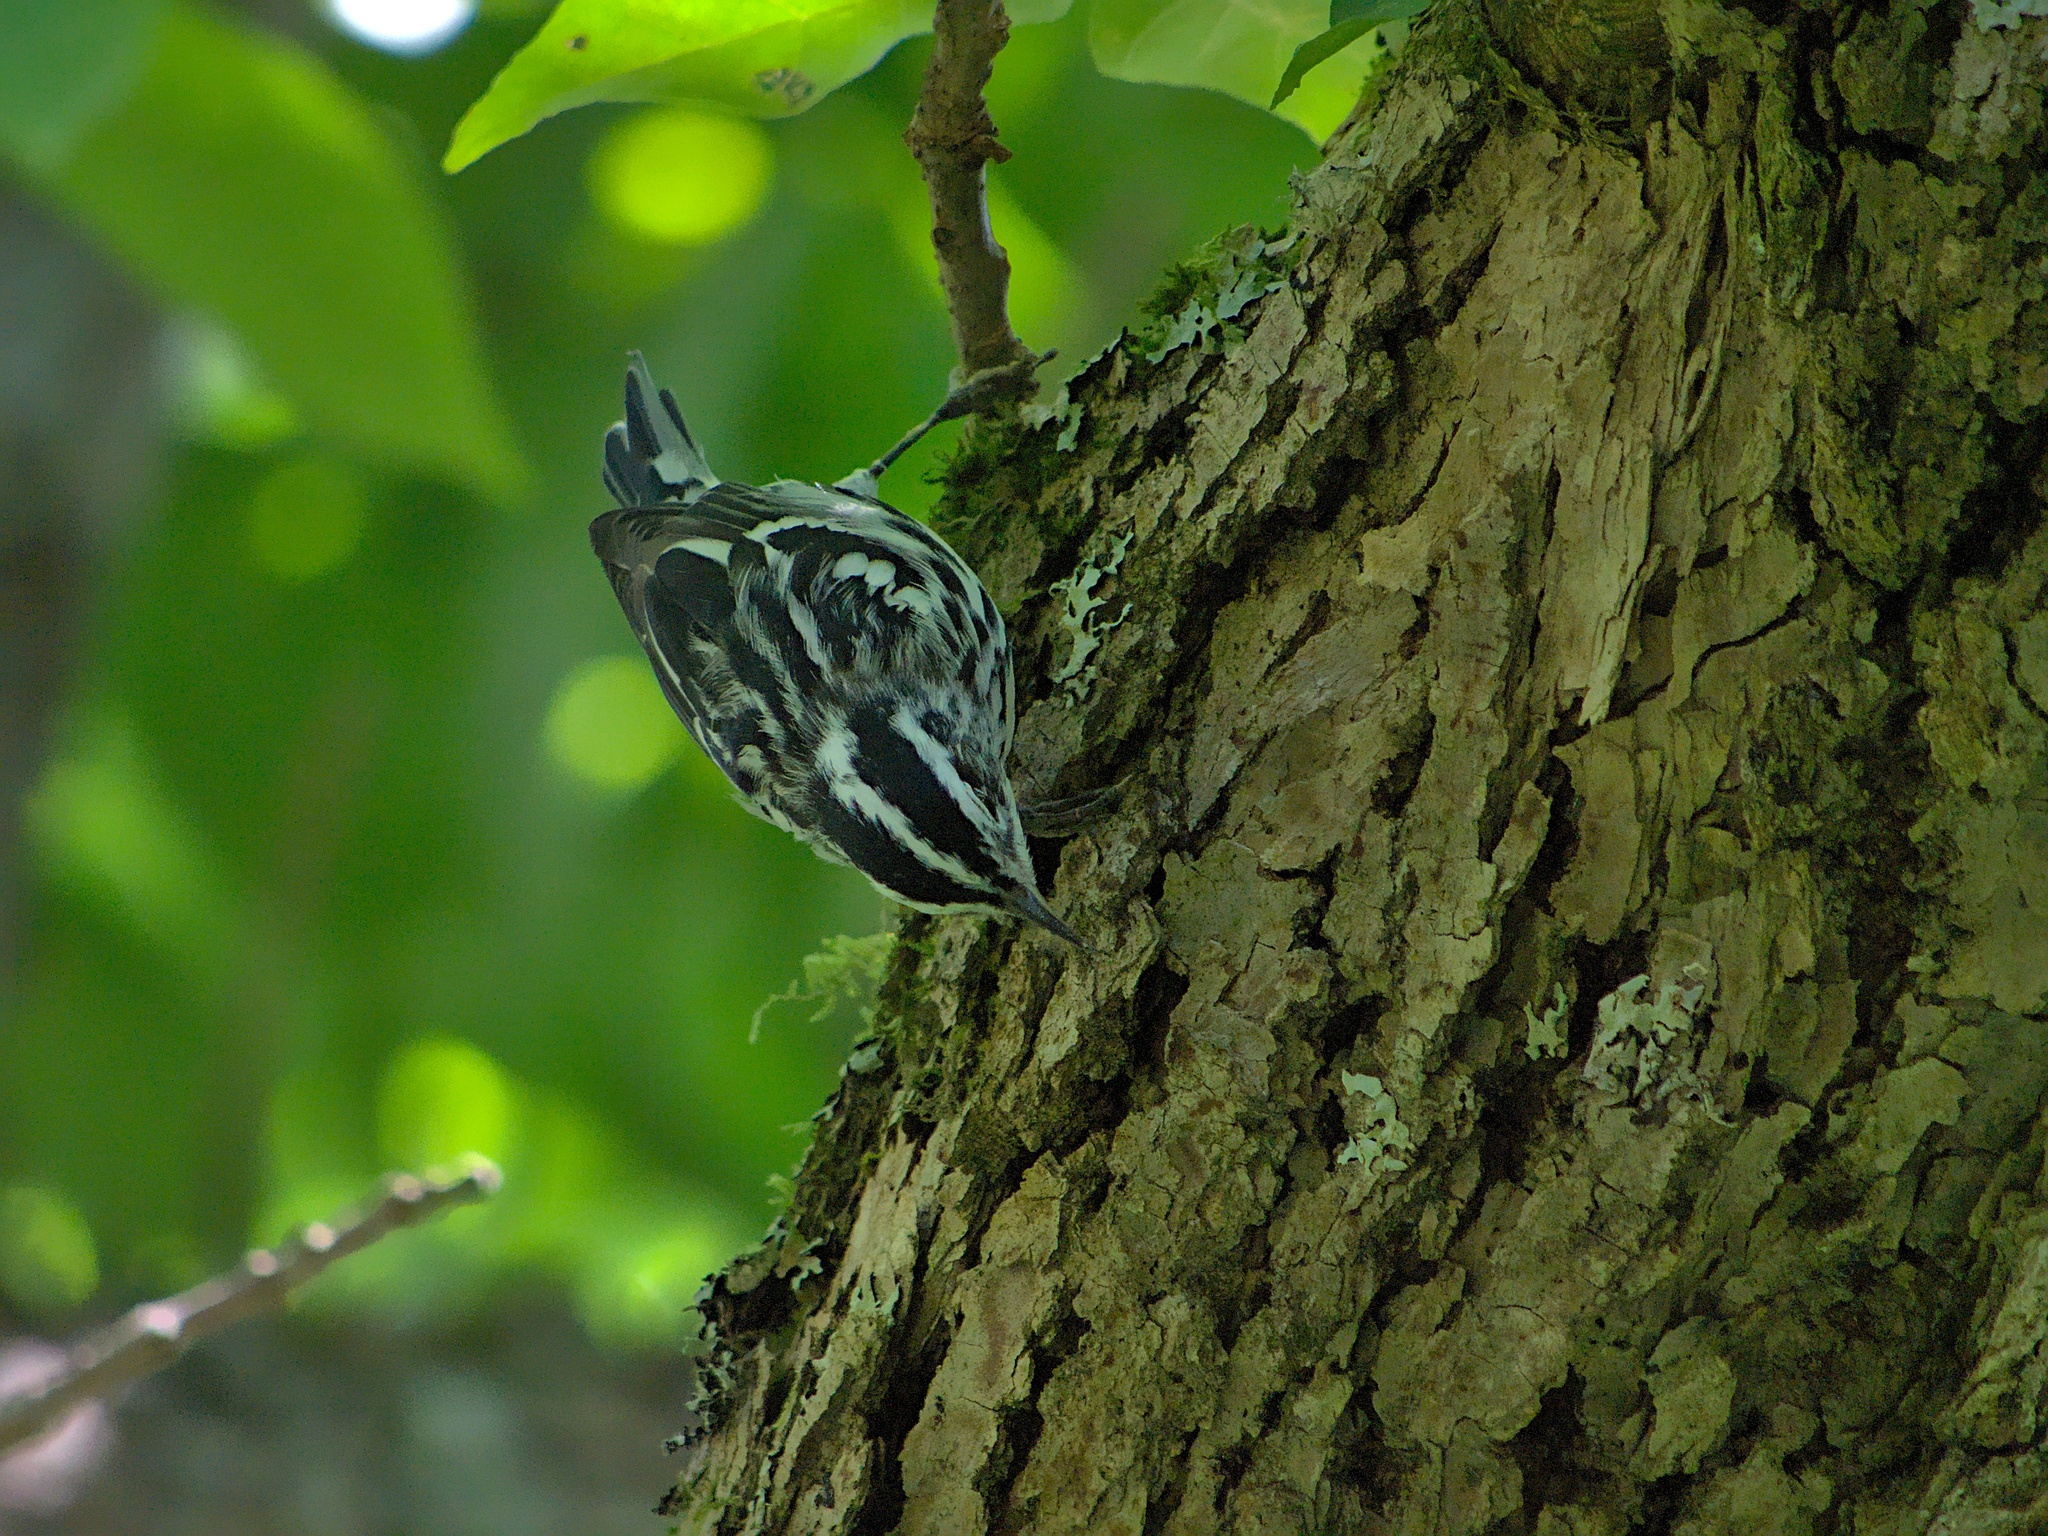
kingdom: Animalia
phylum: Chordata
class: Aves
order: Passeriformes
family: Parulidae
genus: Mniotilta
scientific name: Mniotilta varia
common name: Black-and-white warbler
